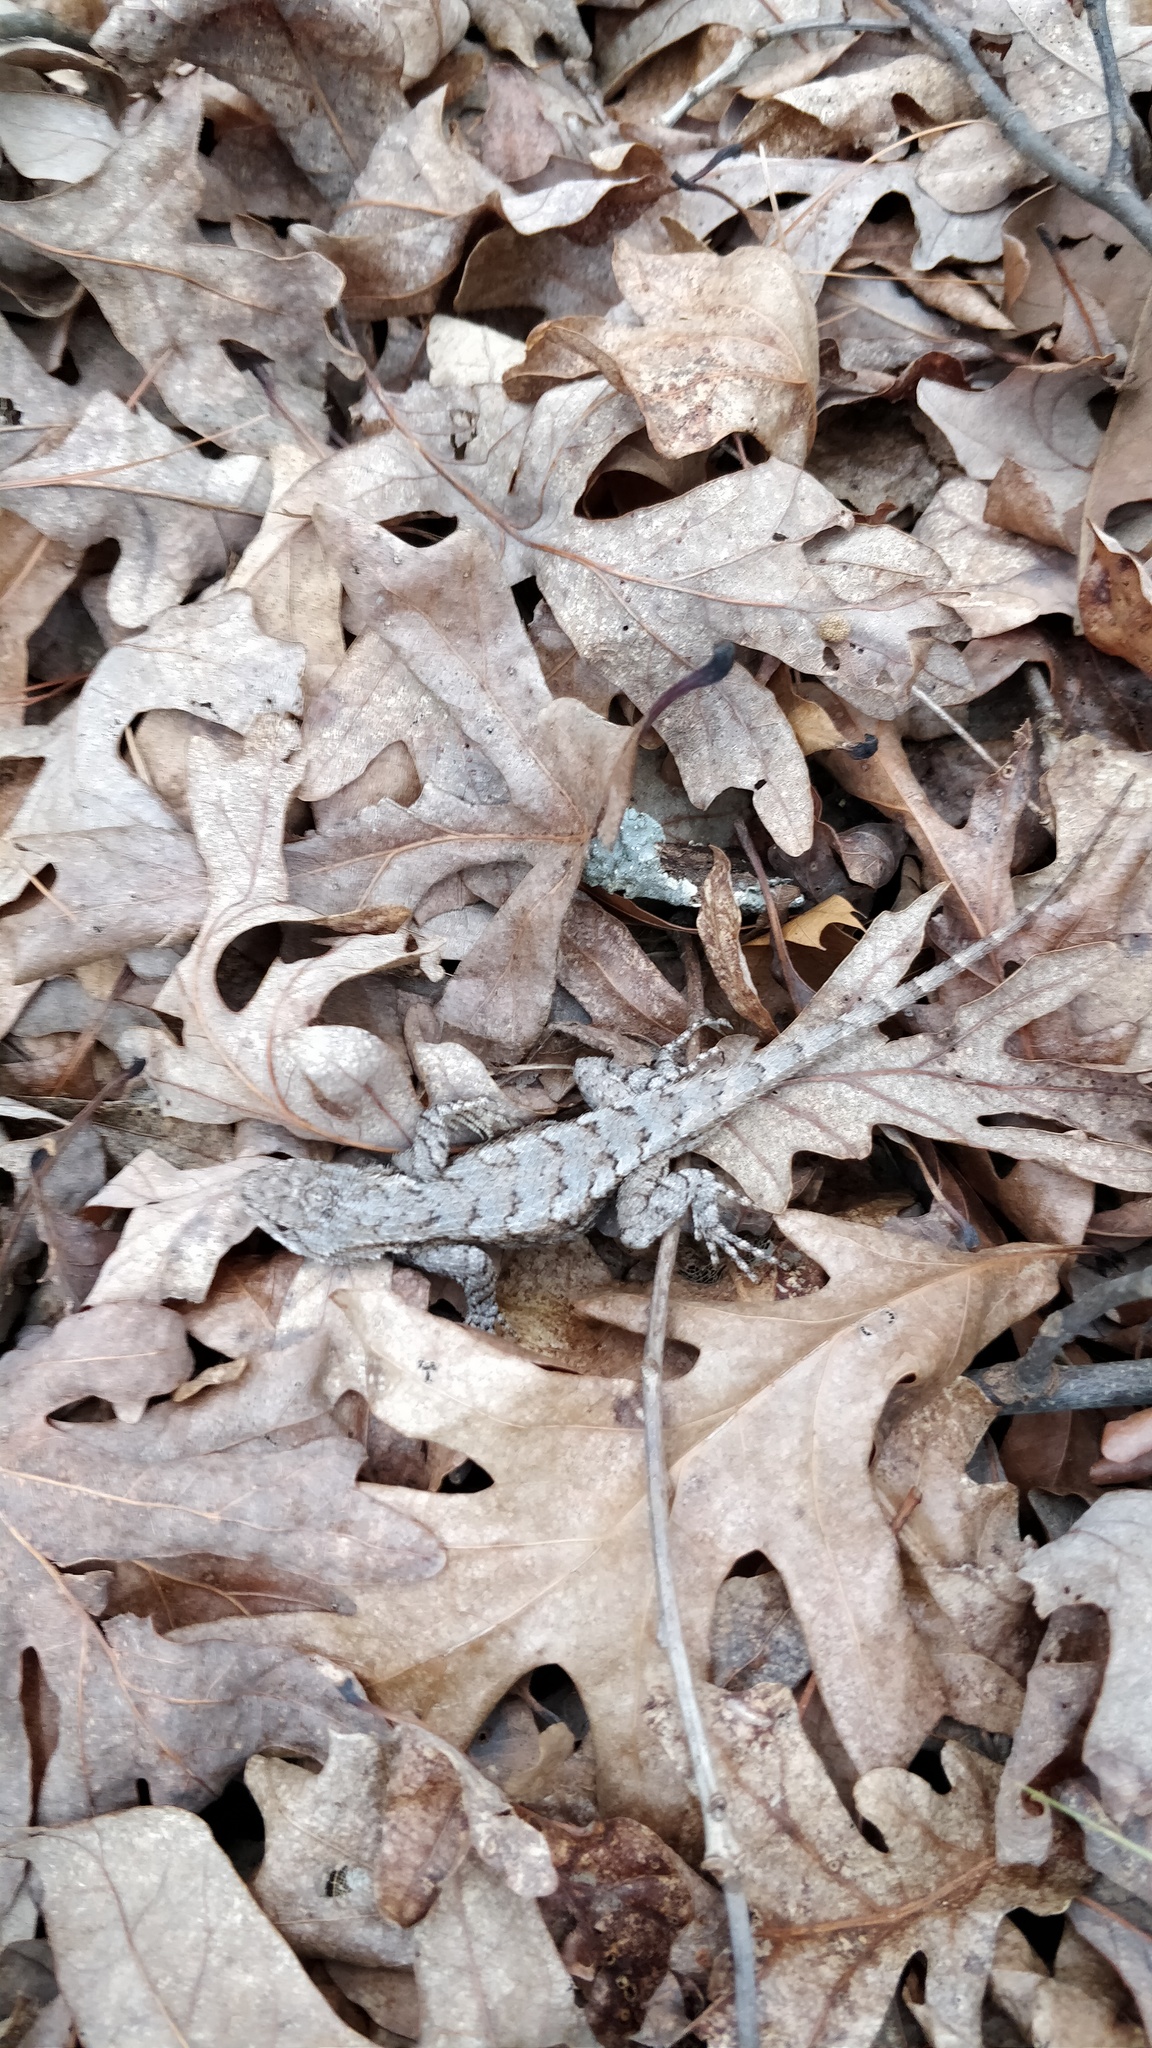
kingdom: Animalia
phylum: Chordata
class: Squamata
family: Phrynosomatidae
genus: Sceloporus
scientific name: Sceloporus undulatus
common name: Eastern fence lizard
